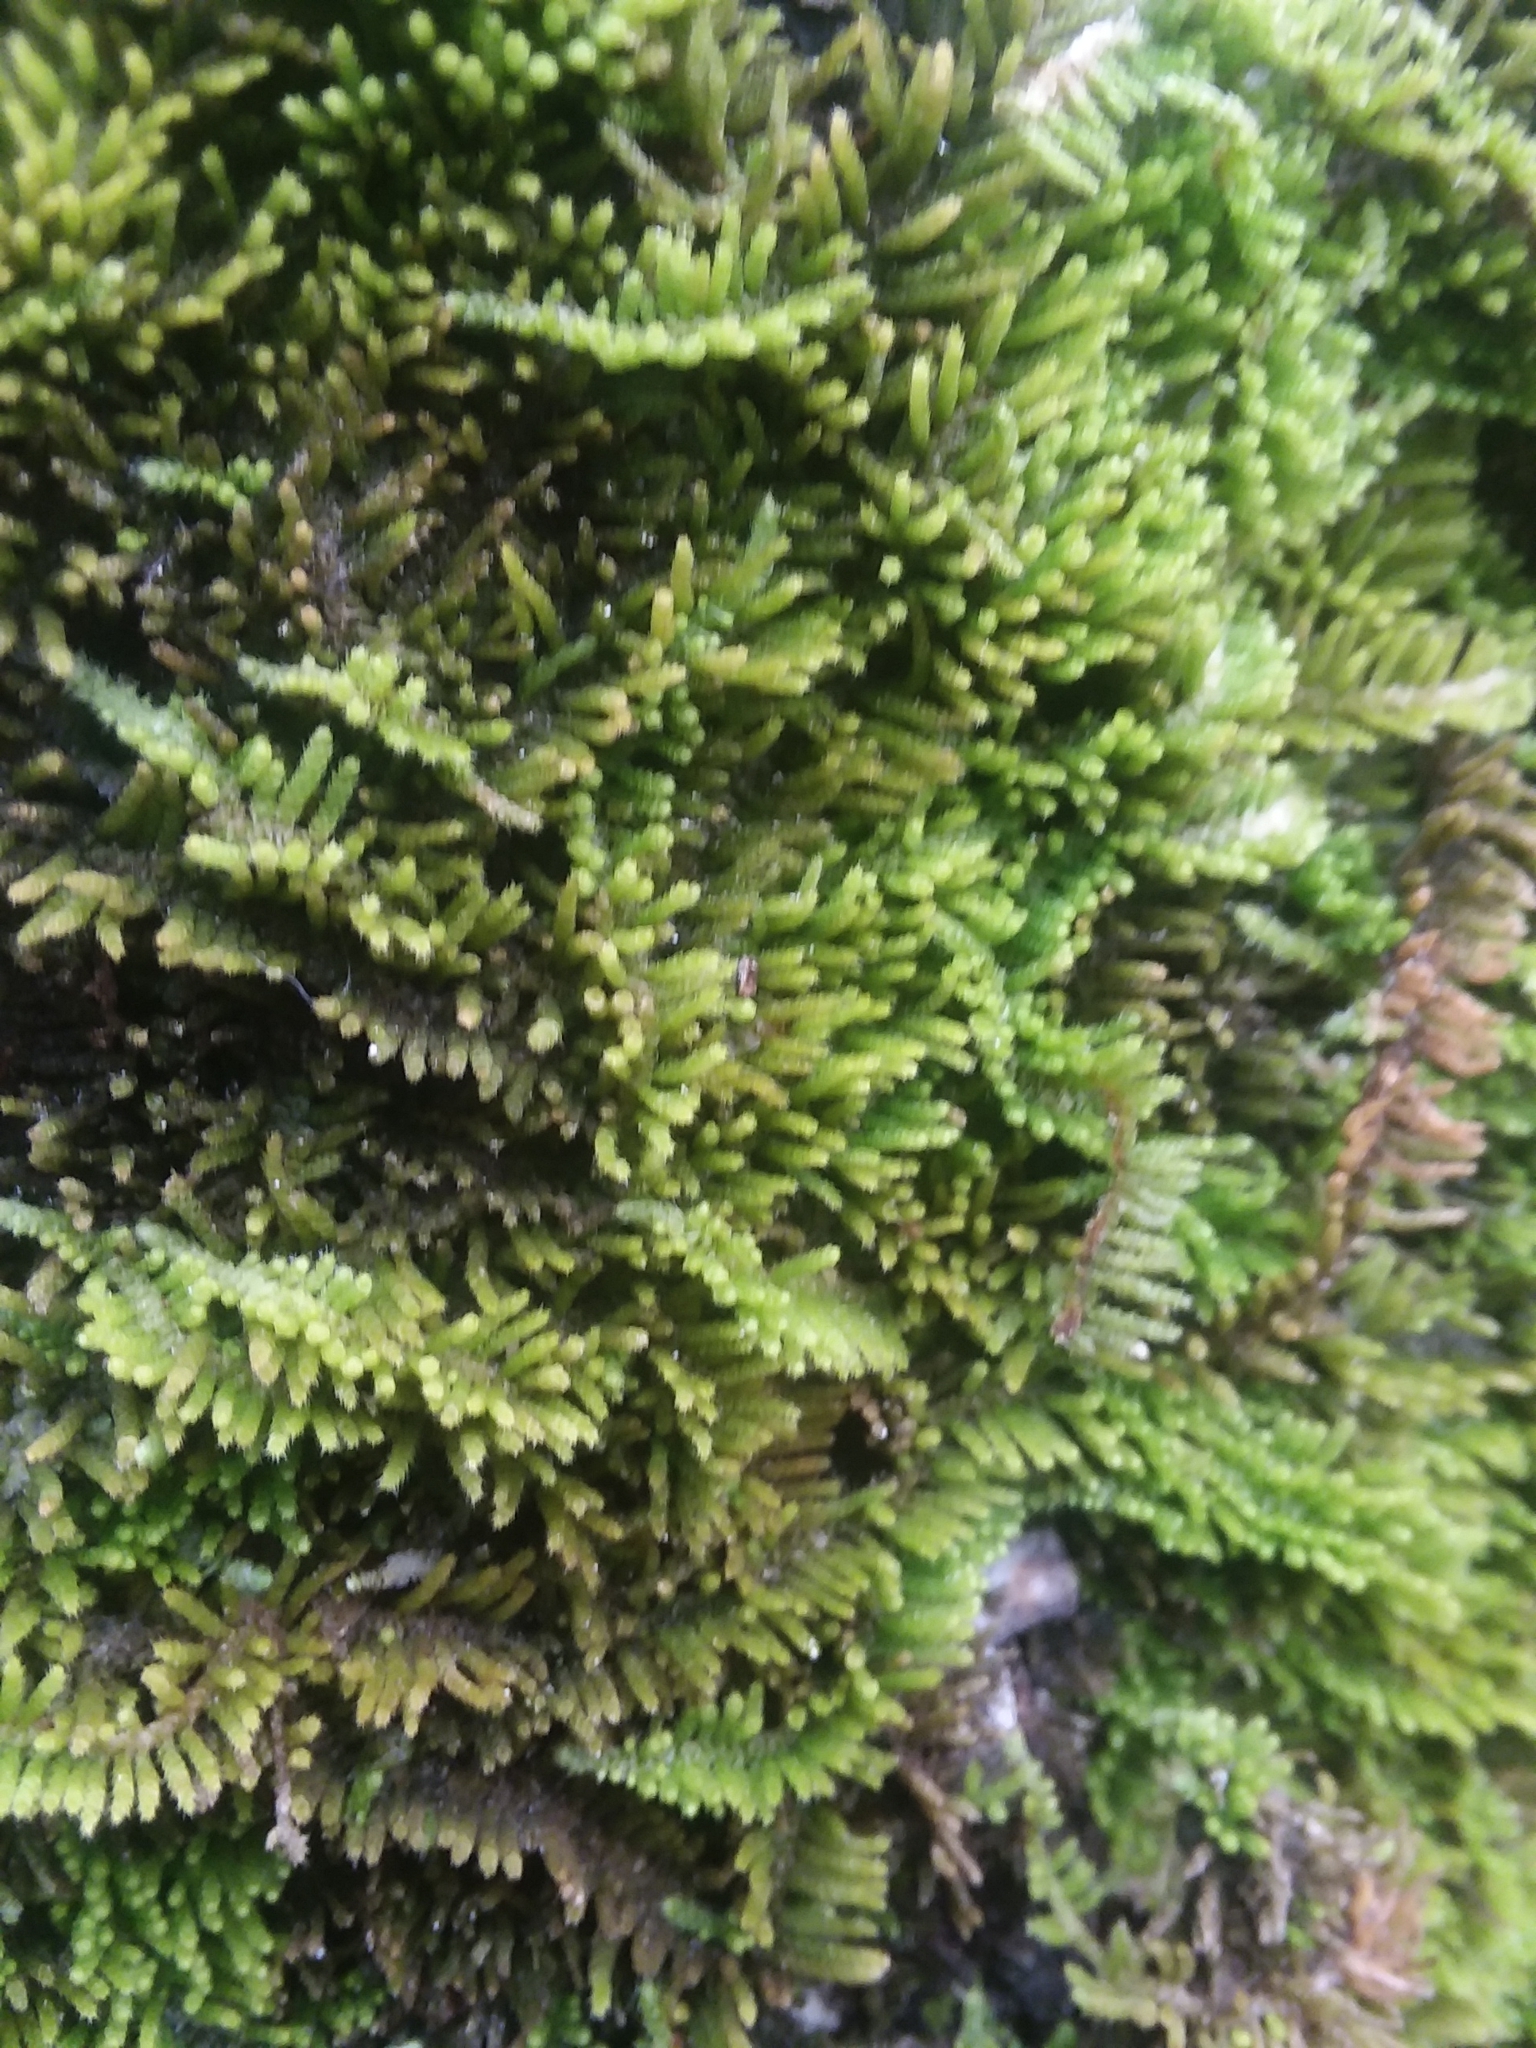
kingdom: Plantae
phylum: Bryophyta
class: Bryopsida
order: Hypnales
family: Theliaceae
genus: Thelia
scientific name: Thelia hirtella
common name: Common thelia
